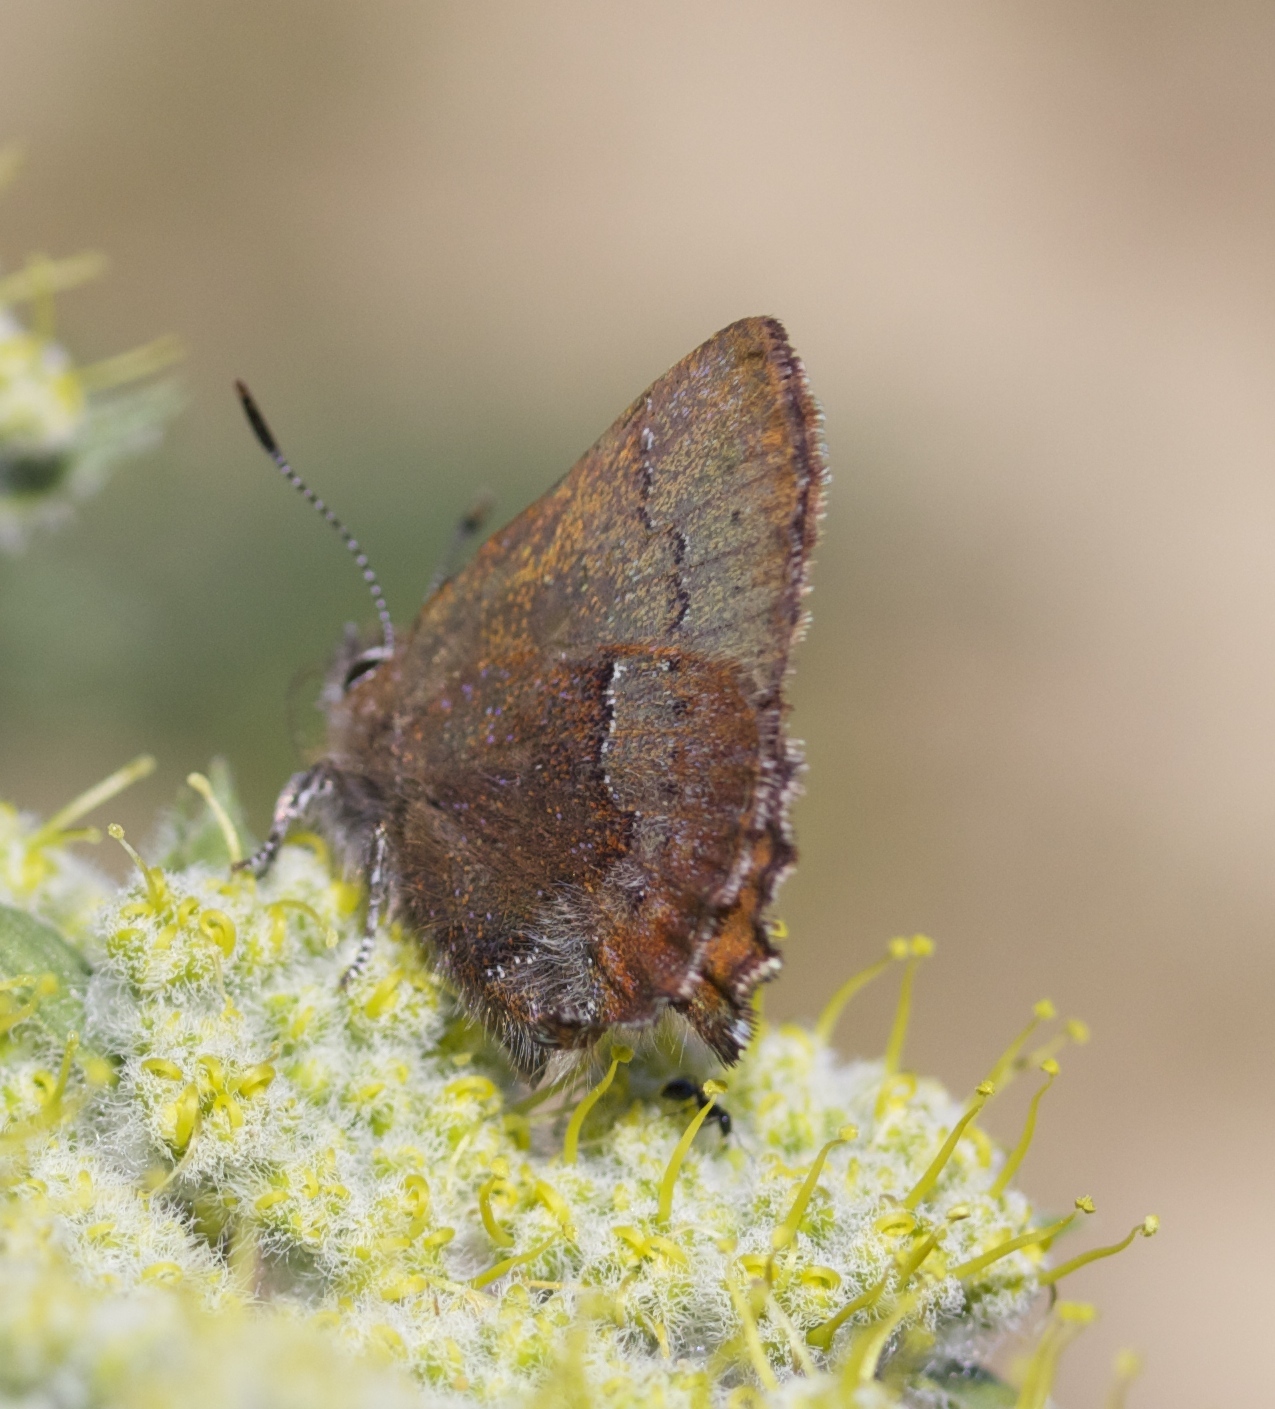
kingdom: Animalia
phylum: Arthropoda
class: Insecta
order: Lepidoptera
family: Lycaenidae
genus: Callophrys
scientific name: Callophrys mossii
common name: Moss' elfin
